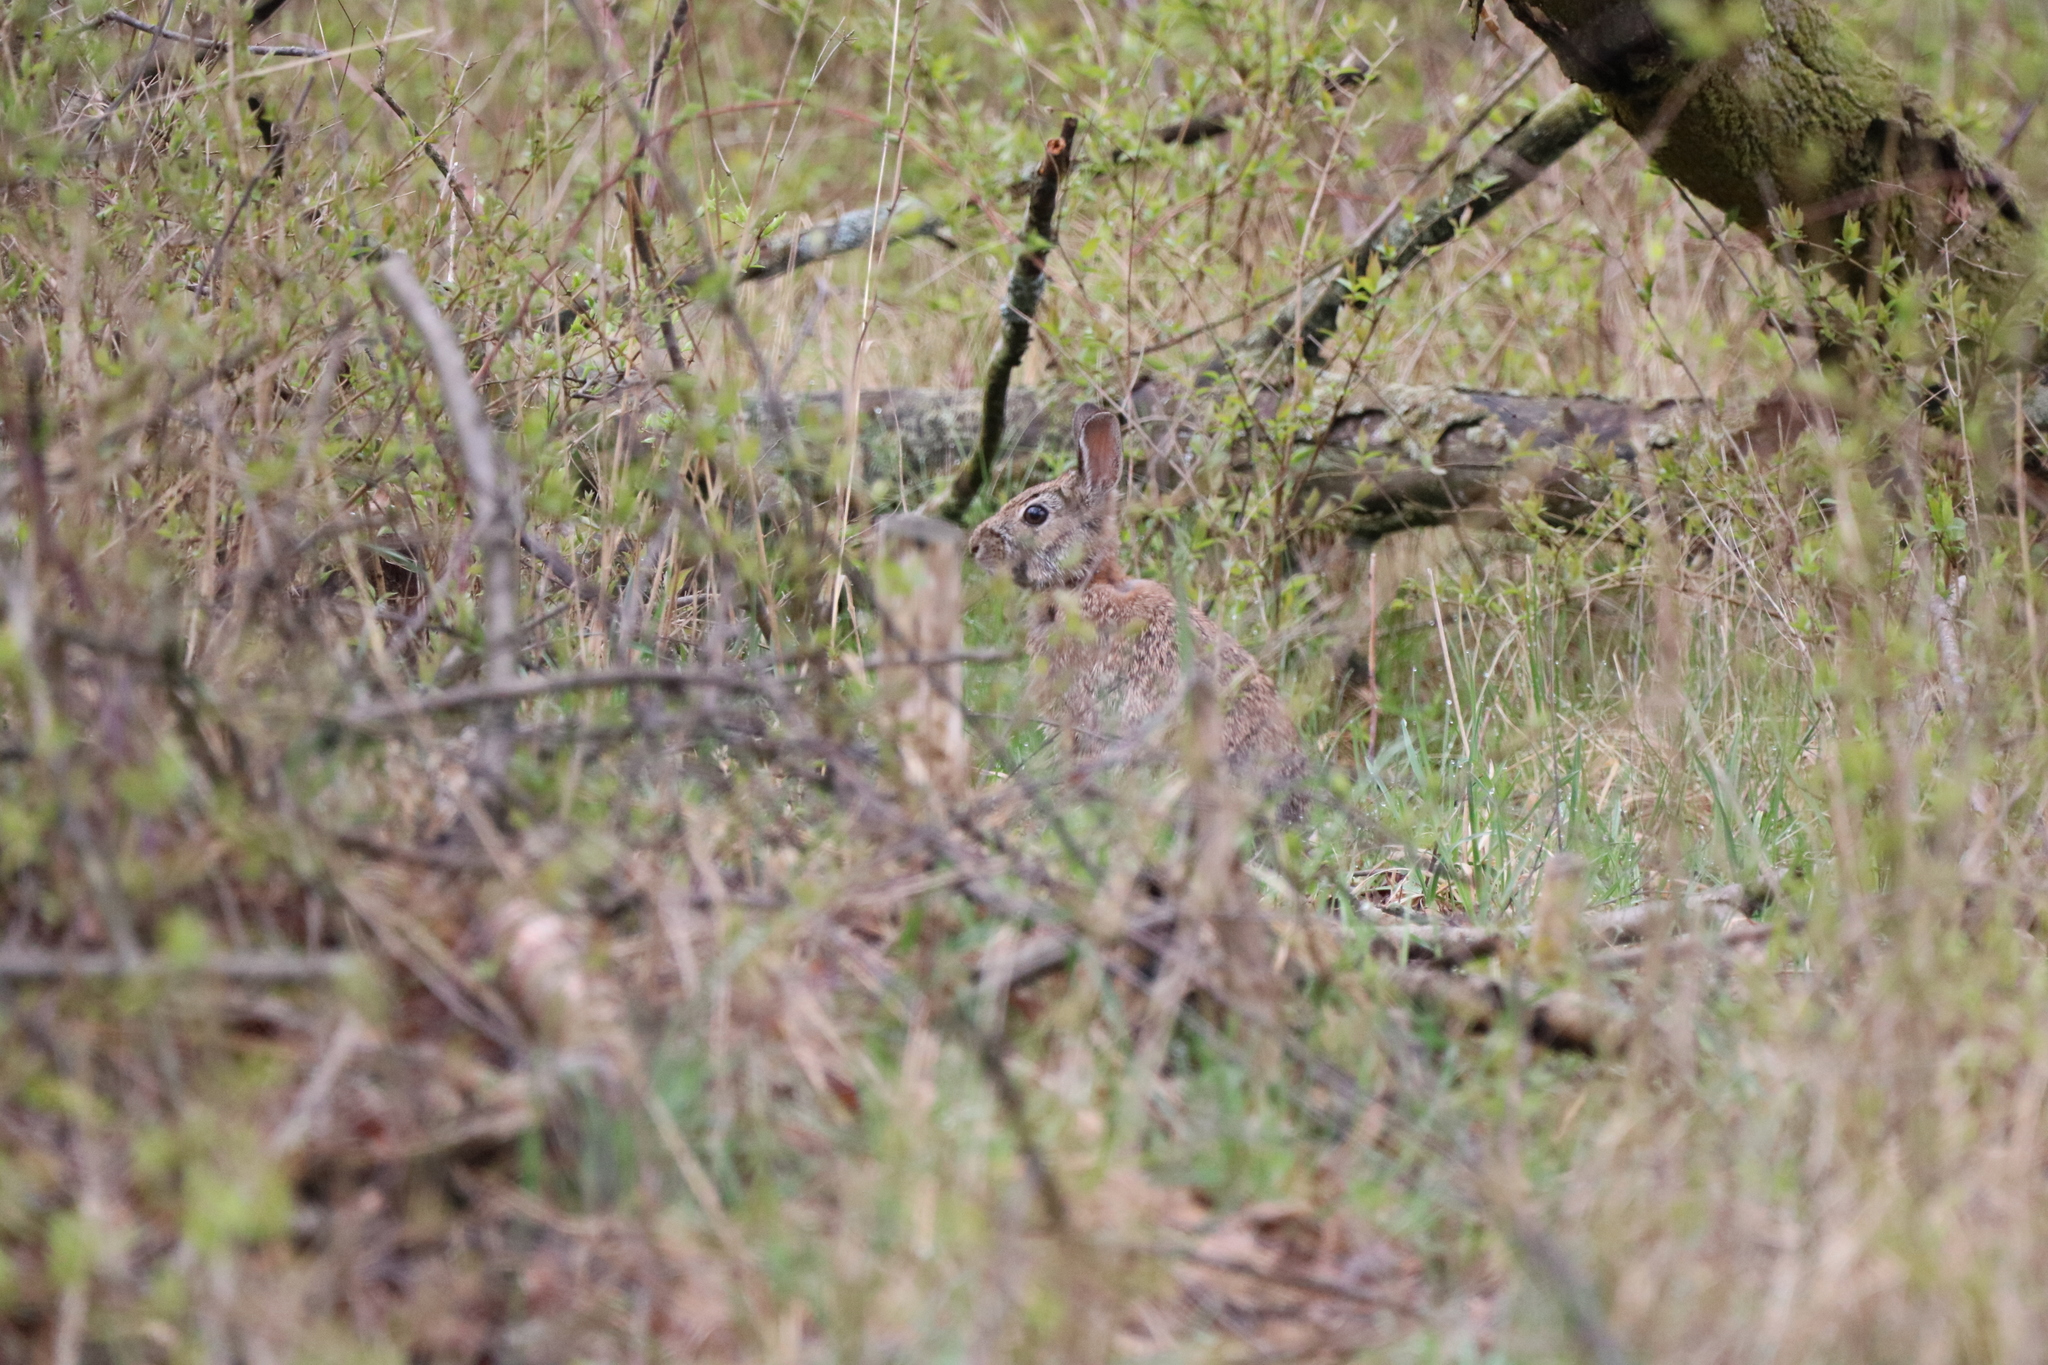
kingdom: Animalia
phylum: Chordata
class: Mammalia
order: Lagomorpha
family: Leporidae
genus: Sylvilagus
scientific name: Sylvilagus floridanus
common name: Eastern cottontail
